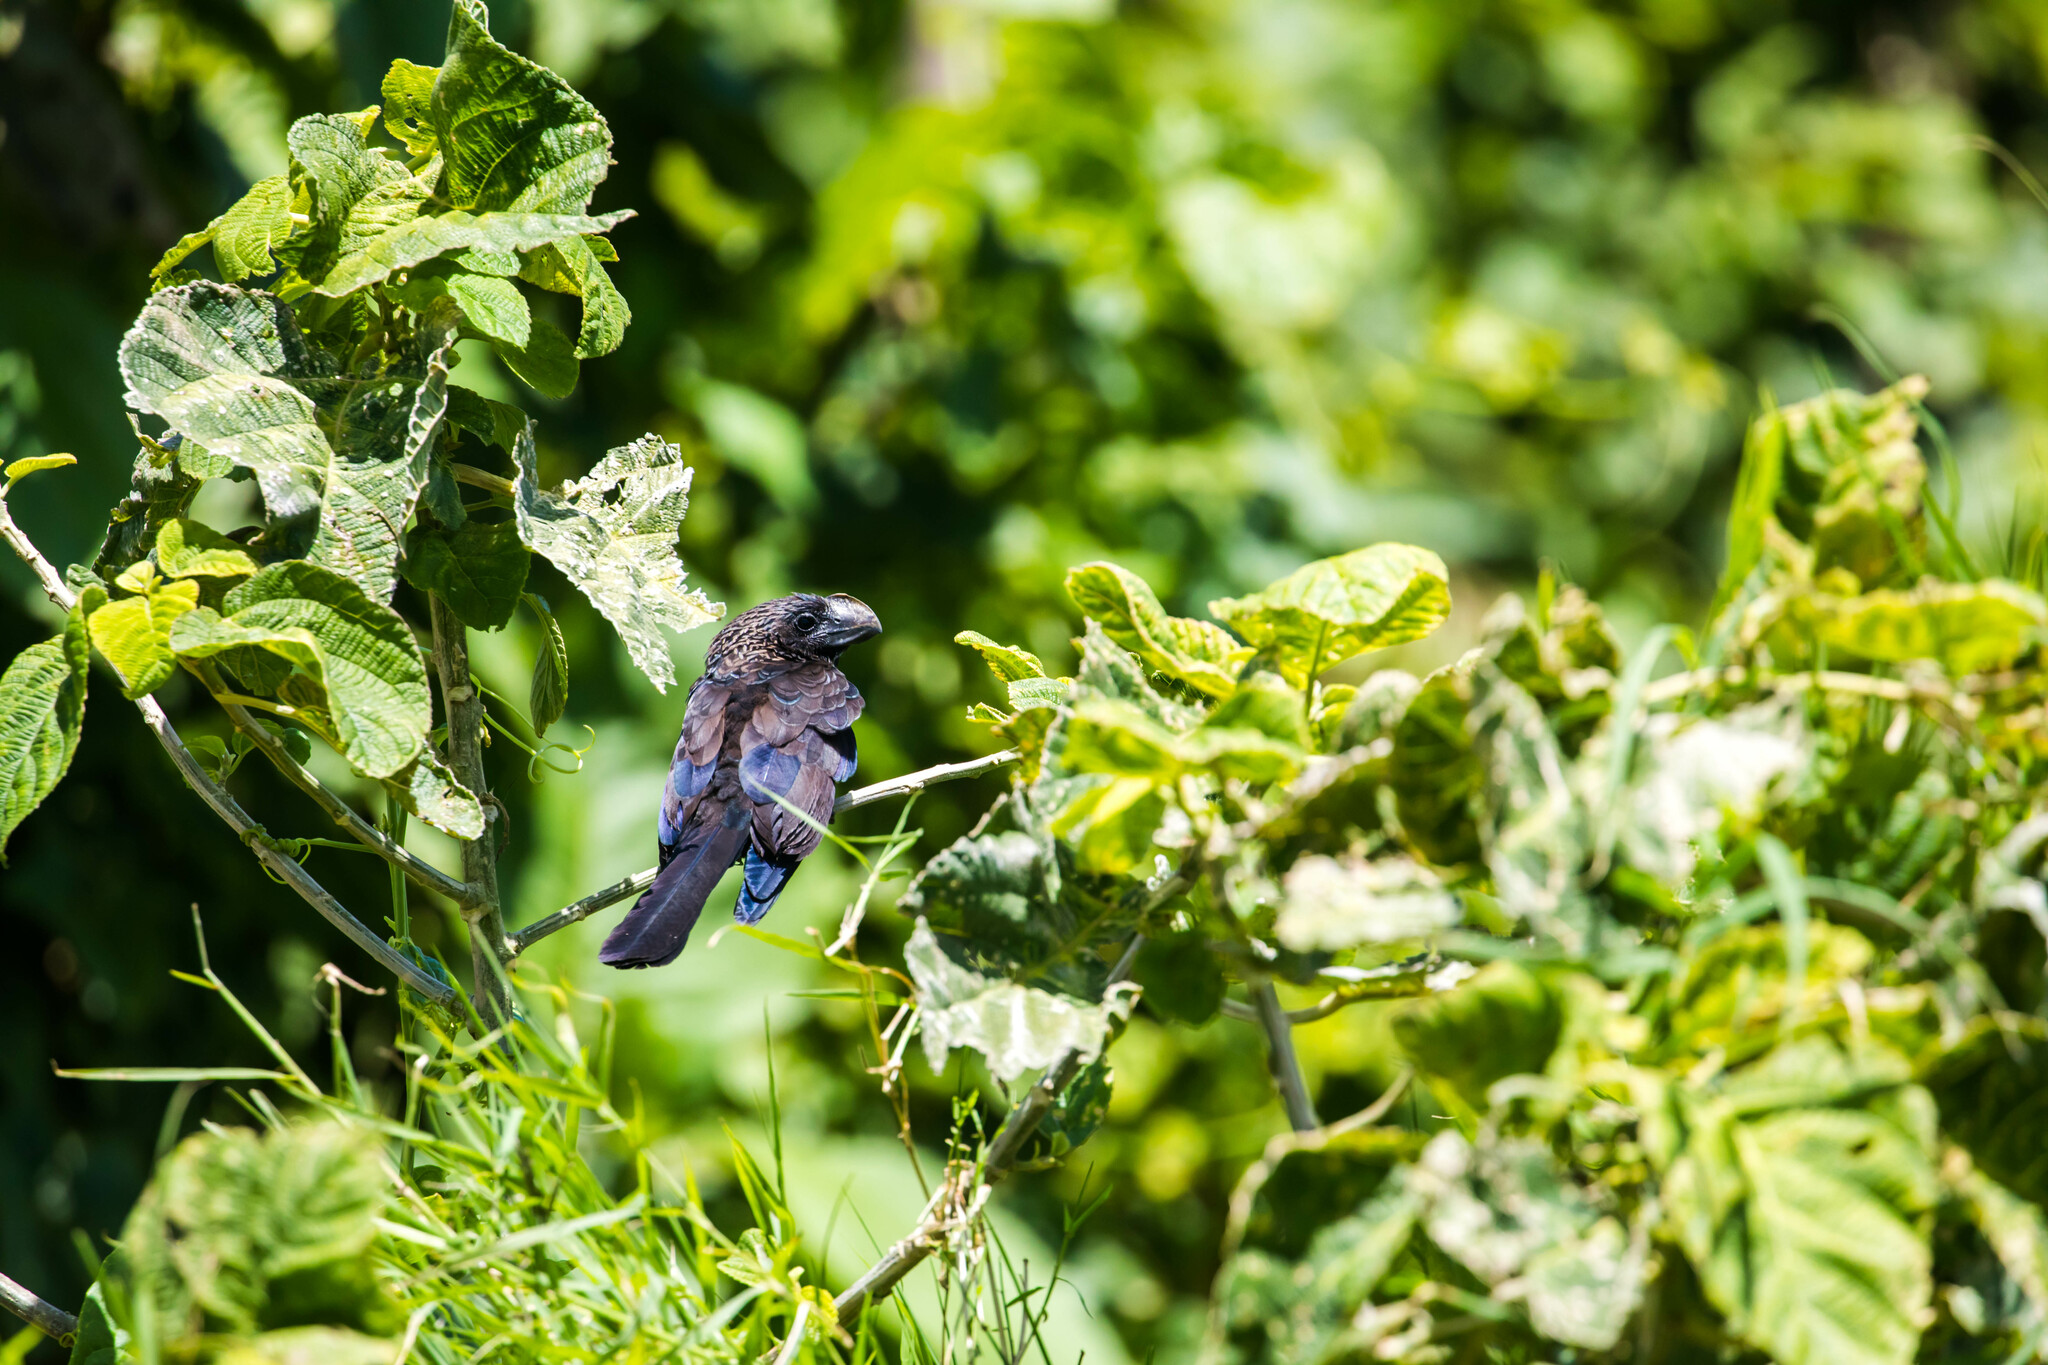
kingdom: Animalia
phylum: Chordata
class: Aves
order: Cuculiformes
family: Cuculidae
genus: Crotophaga
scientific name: Crotophaga ani
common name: Smooth-billed ani
